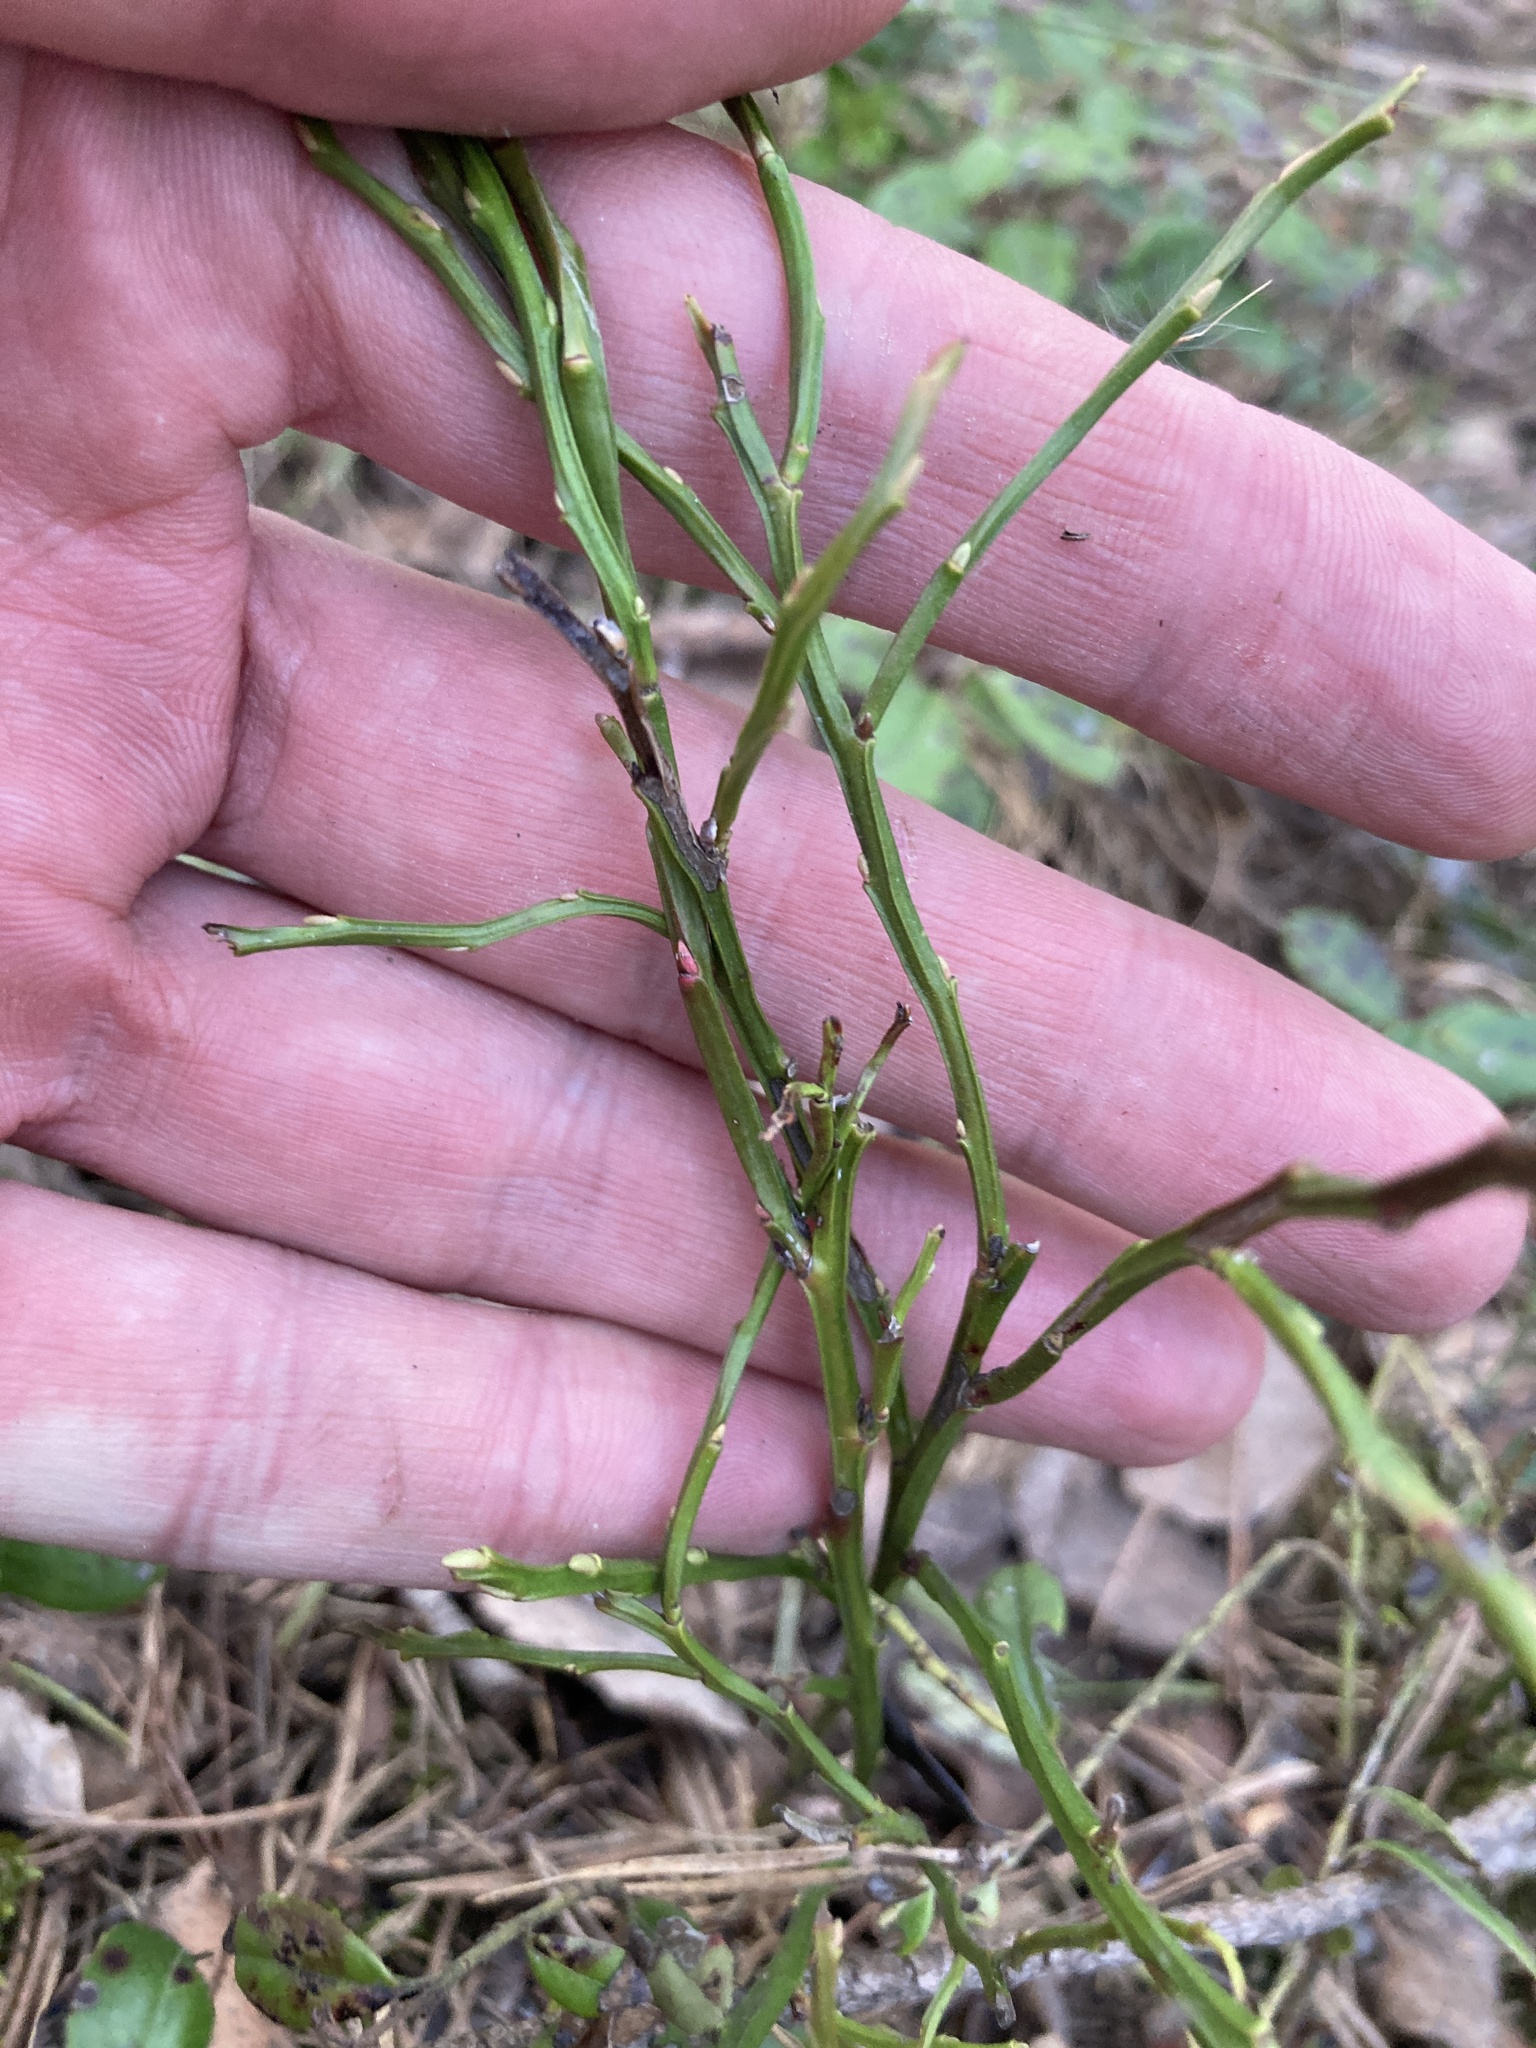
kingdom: Plantae
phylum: Tracheophyta
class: Magnoliopsida
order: Ericales
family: Ericaceae
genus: Vaccinium
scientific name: Vaccinium myrtillus
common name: Bilberry
